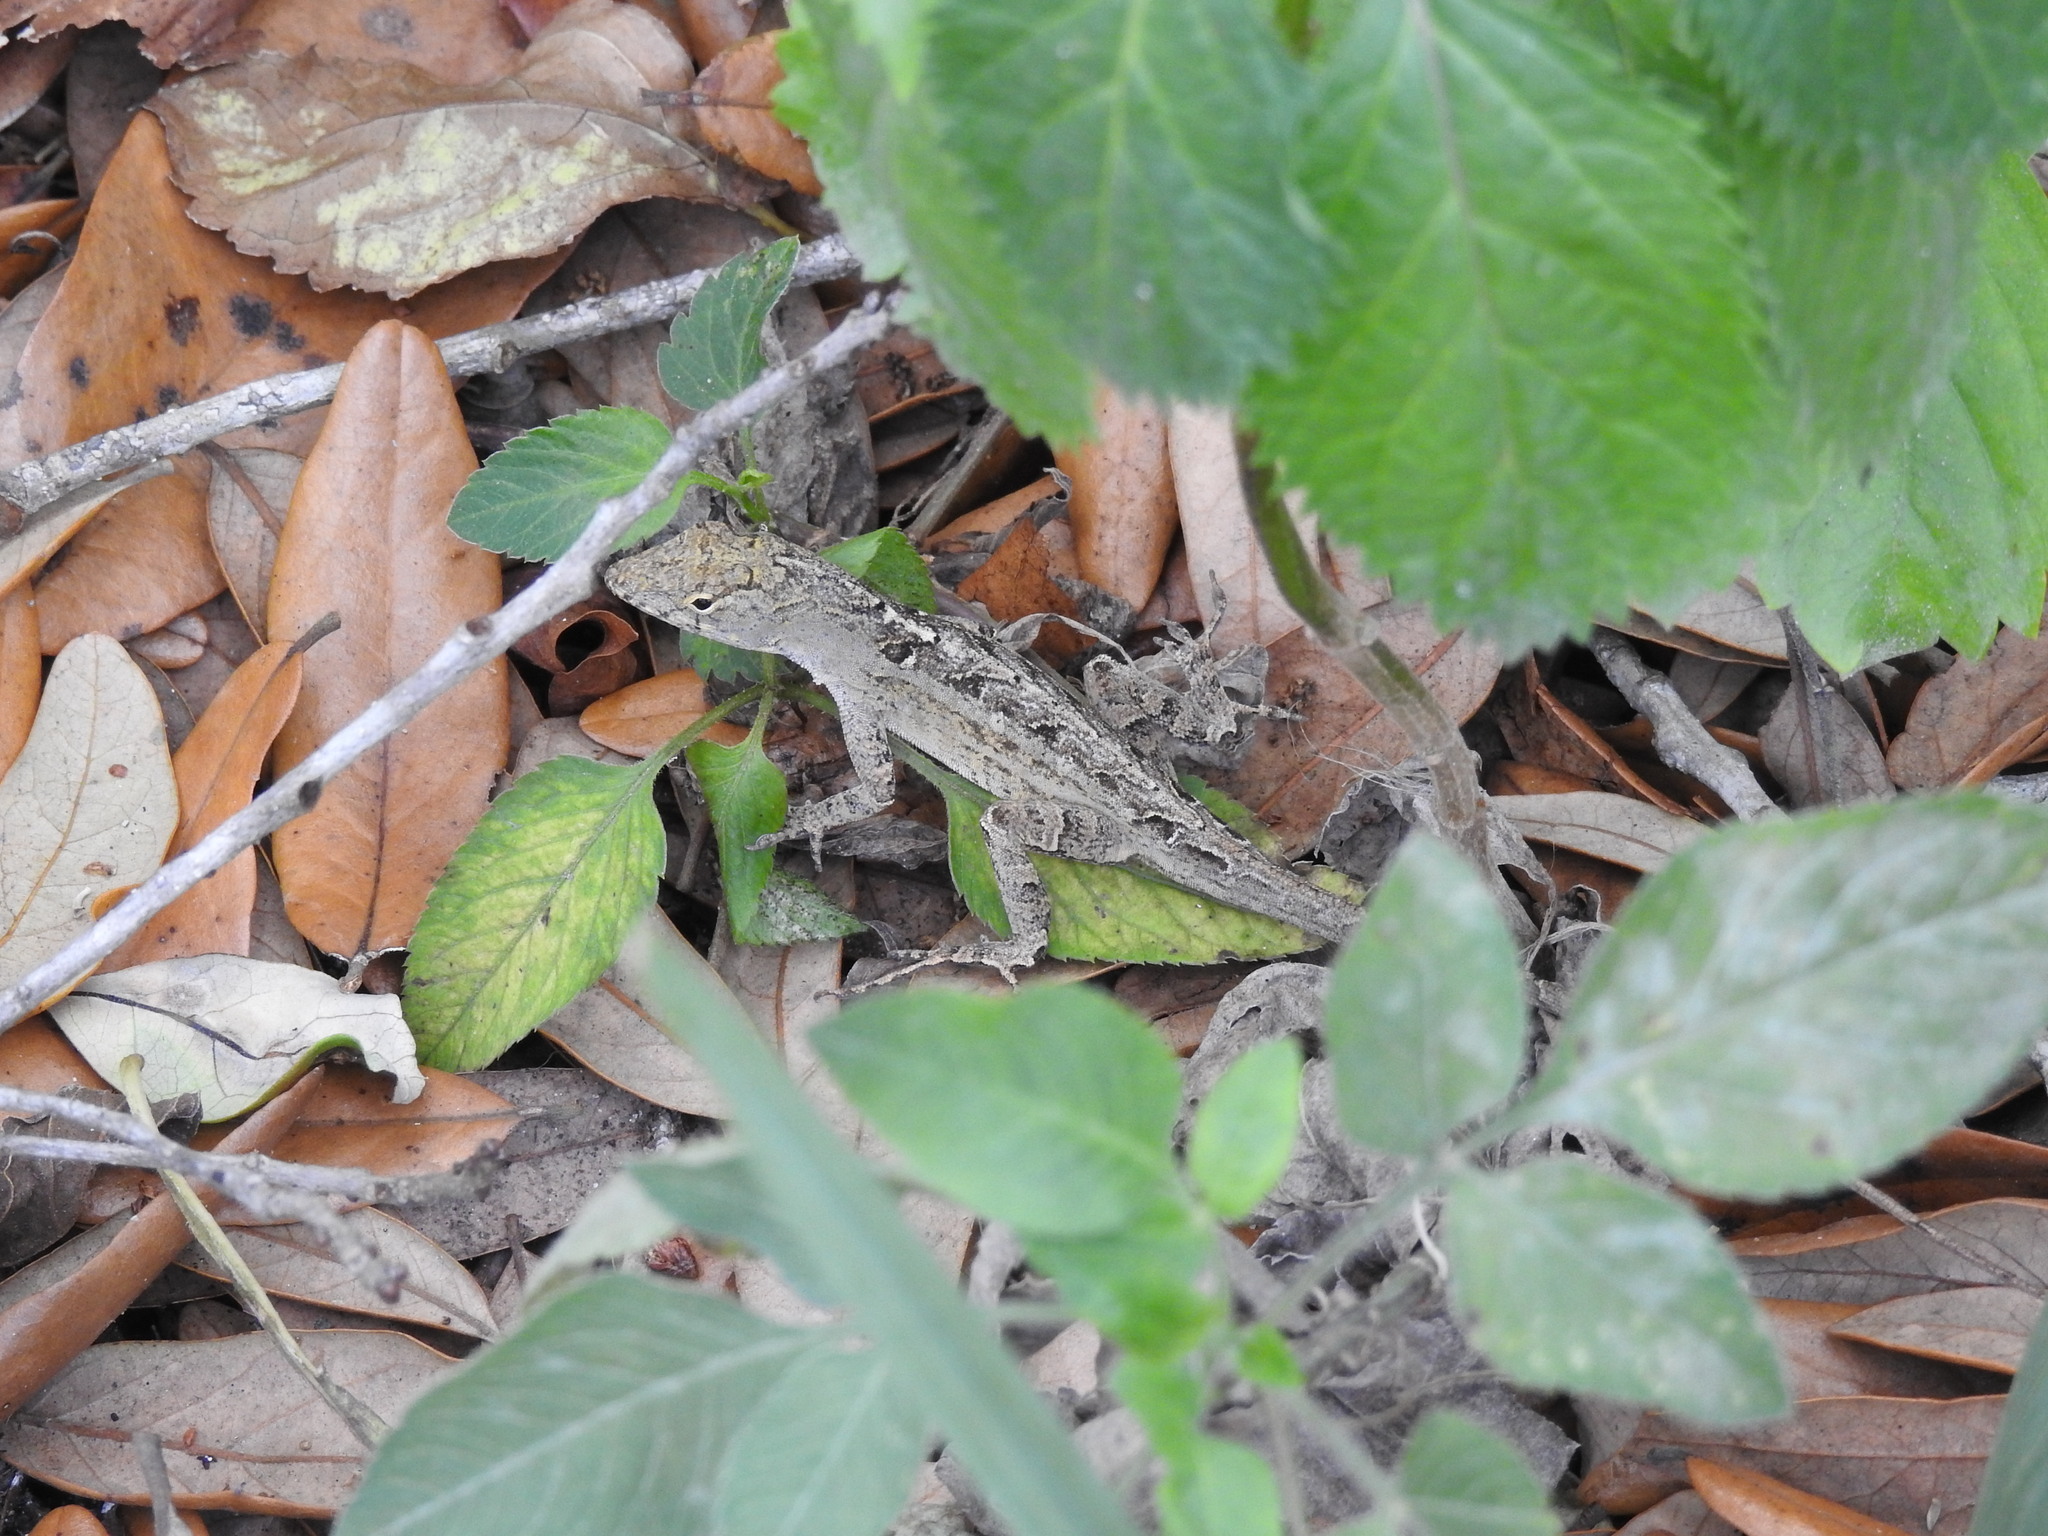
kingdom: Animalia
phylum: Chordata
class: Squamata
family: Dactyloidae
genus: Anolis
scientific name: Anolis sagrei
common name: Brown anole
